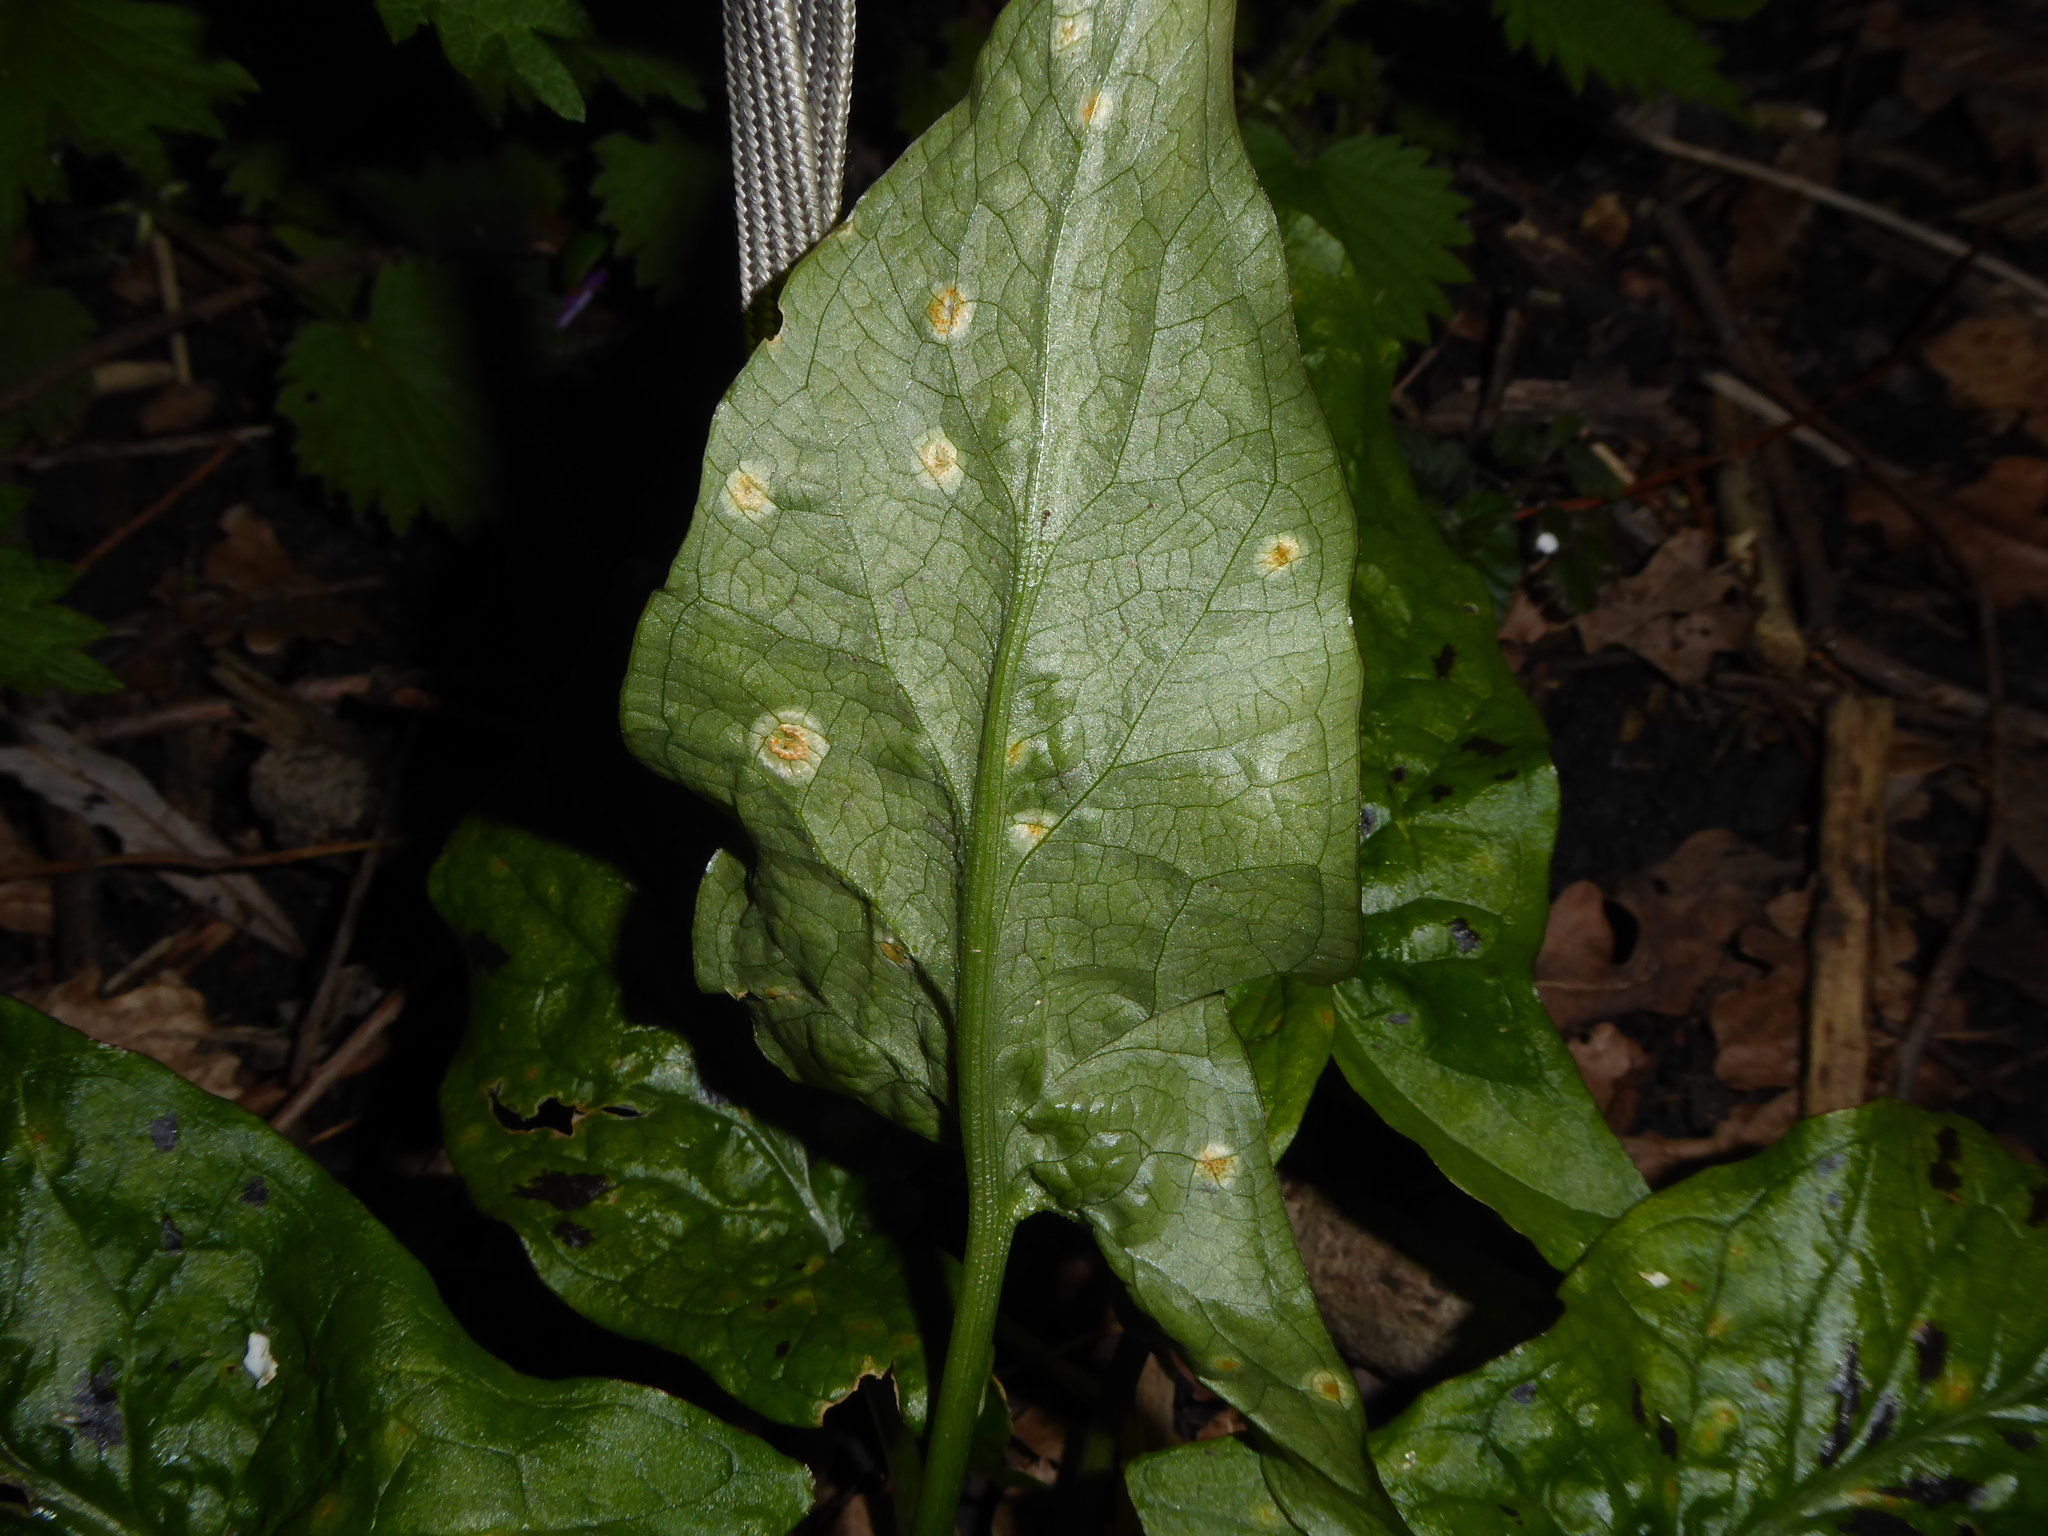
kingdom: Fungi
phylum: Basidiomycota
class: Pucciniomycetes
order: Pucciniales
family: Pucciniaceae
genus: Puccinia
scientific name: Puccinia sessilis
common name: Arum rust
